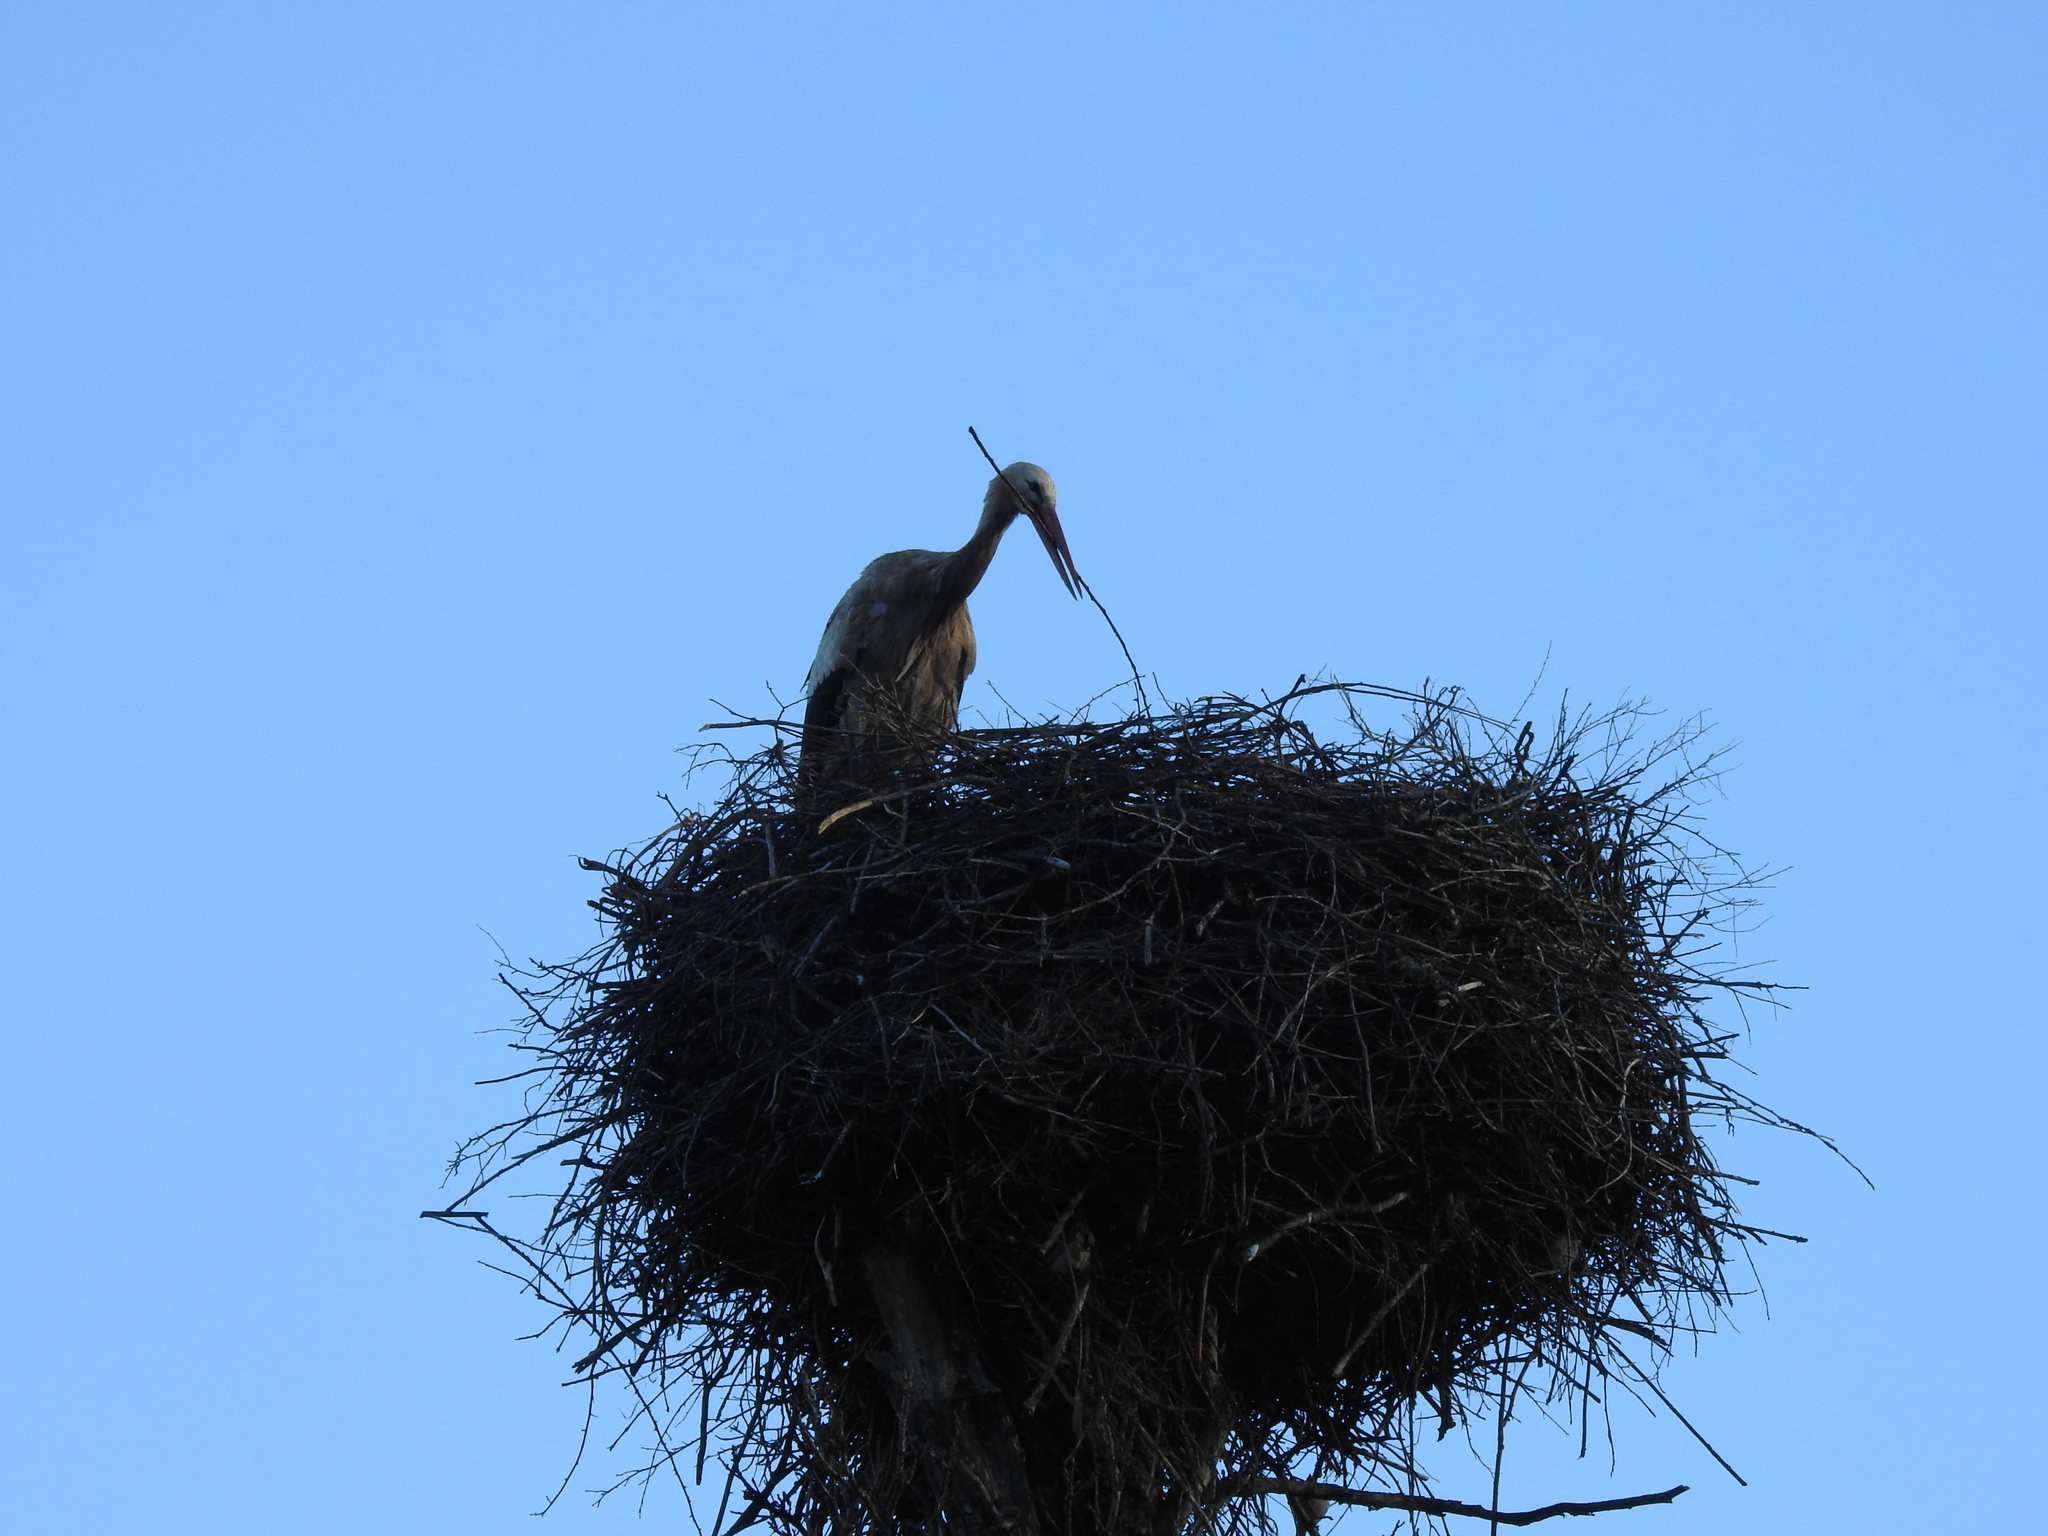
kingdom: Animalia
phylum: Chordata
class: Aves
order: Ciconiiformes
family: Ciconiidae
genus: Ciconia
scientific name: Ciconia ciconia
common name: White stork
